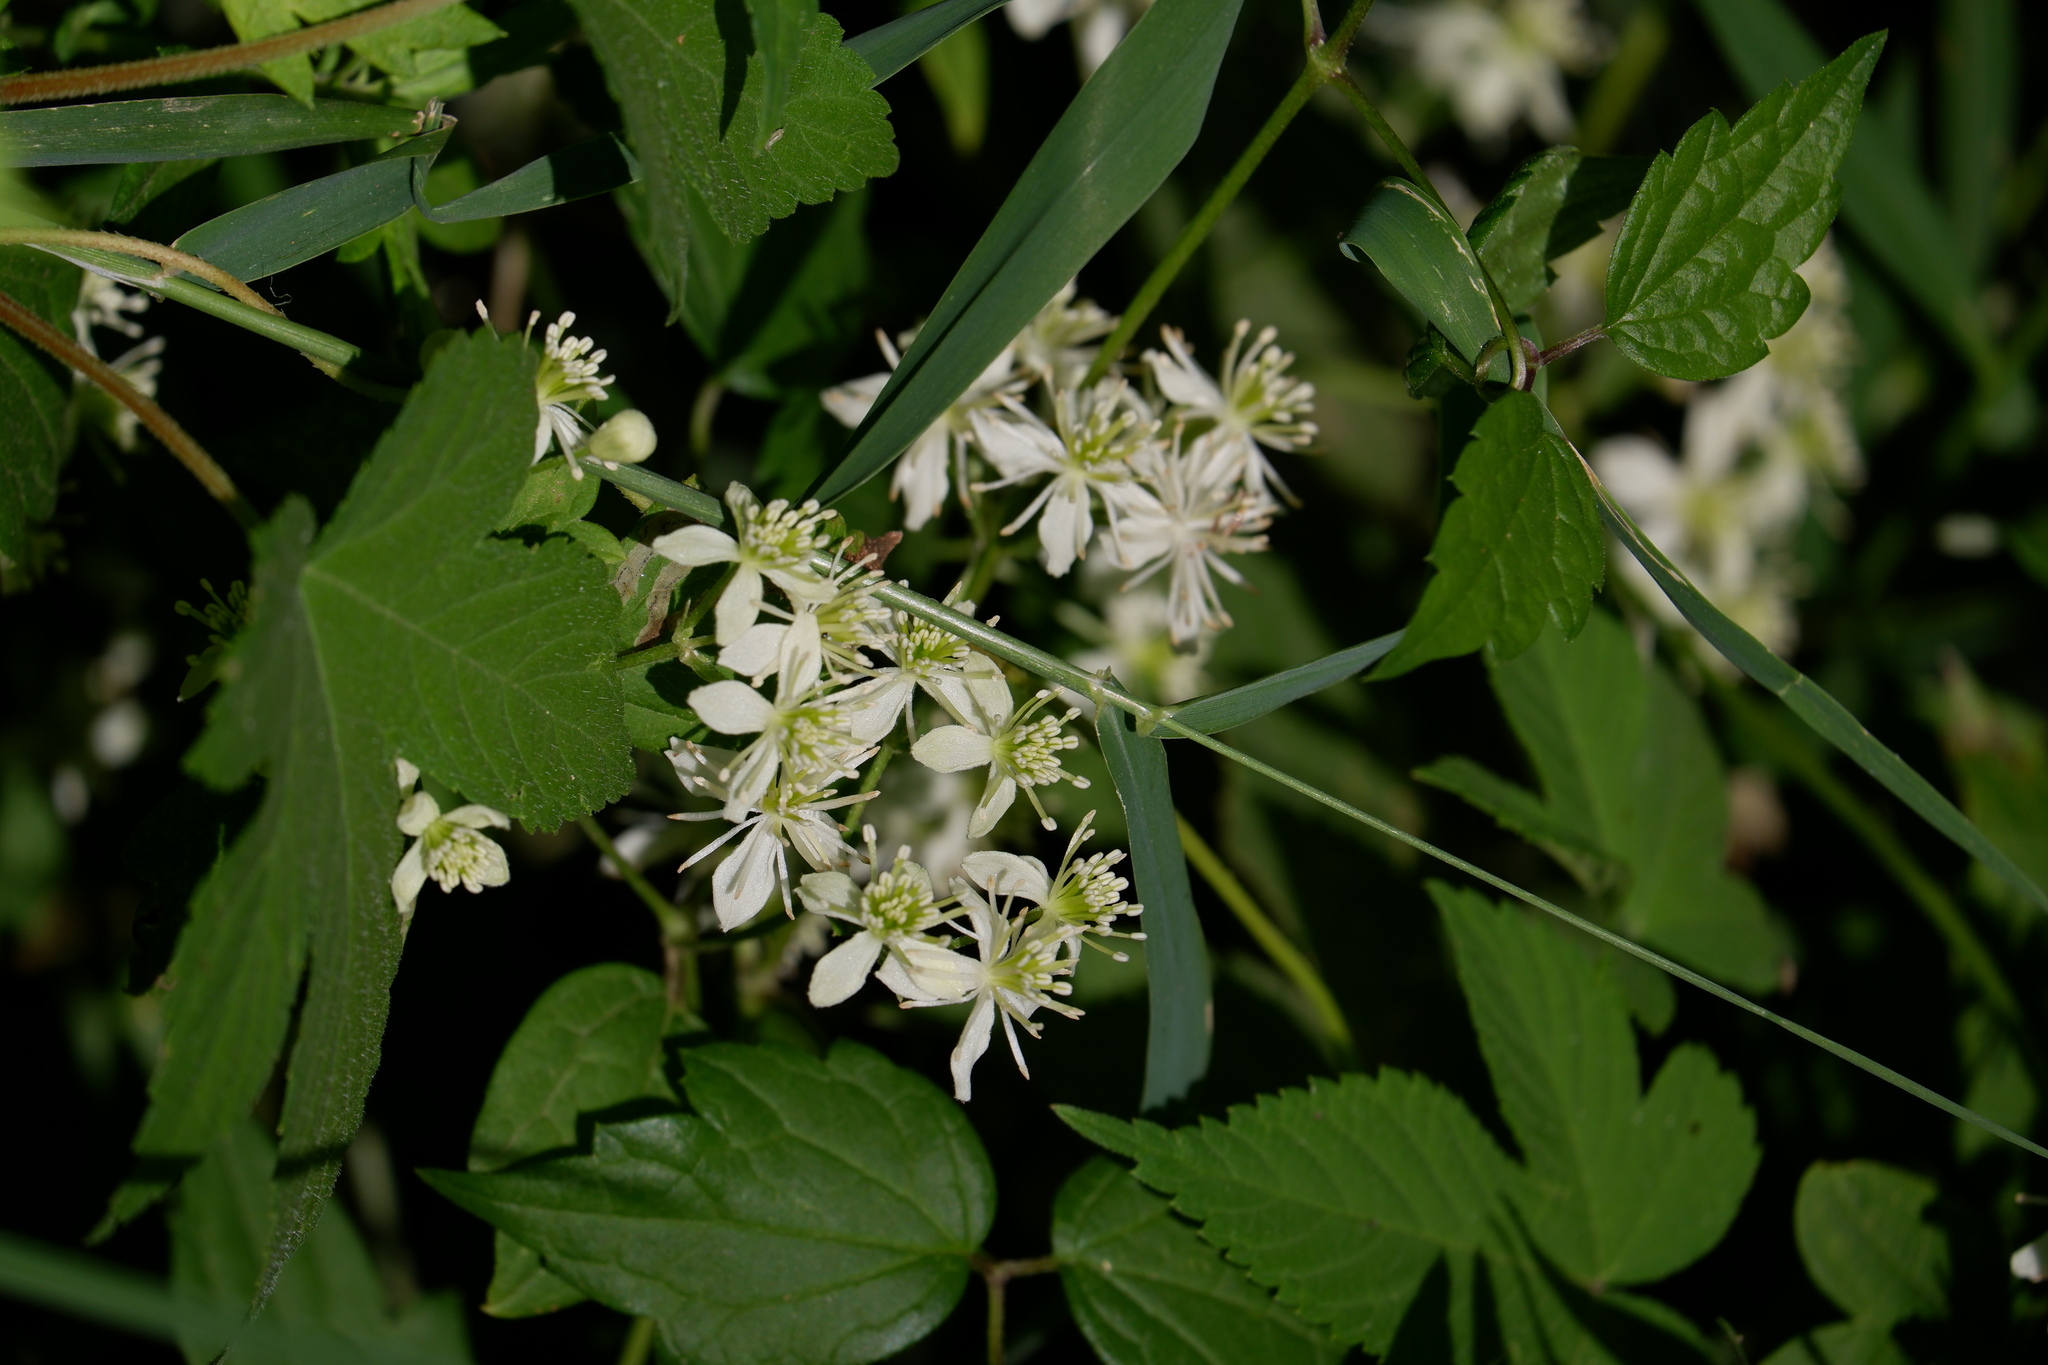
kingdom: Plantae
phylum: Tracheophyta
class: Magnoliopsida
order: Ranunculales
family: Ranunculaceae
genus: Clematis
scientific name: Clematis virginiana
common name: Virgin's-bower
